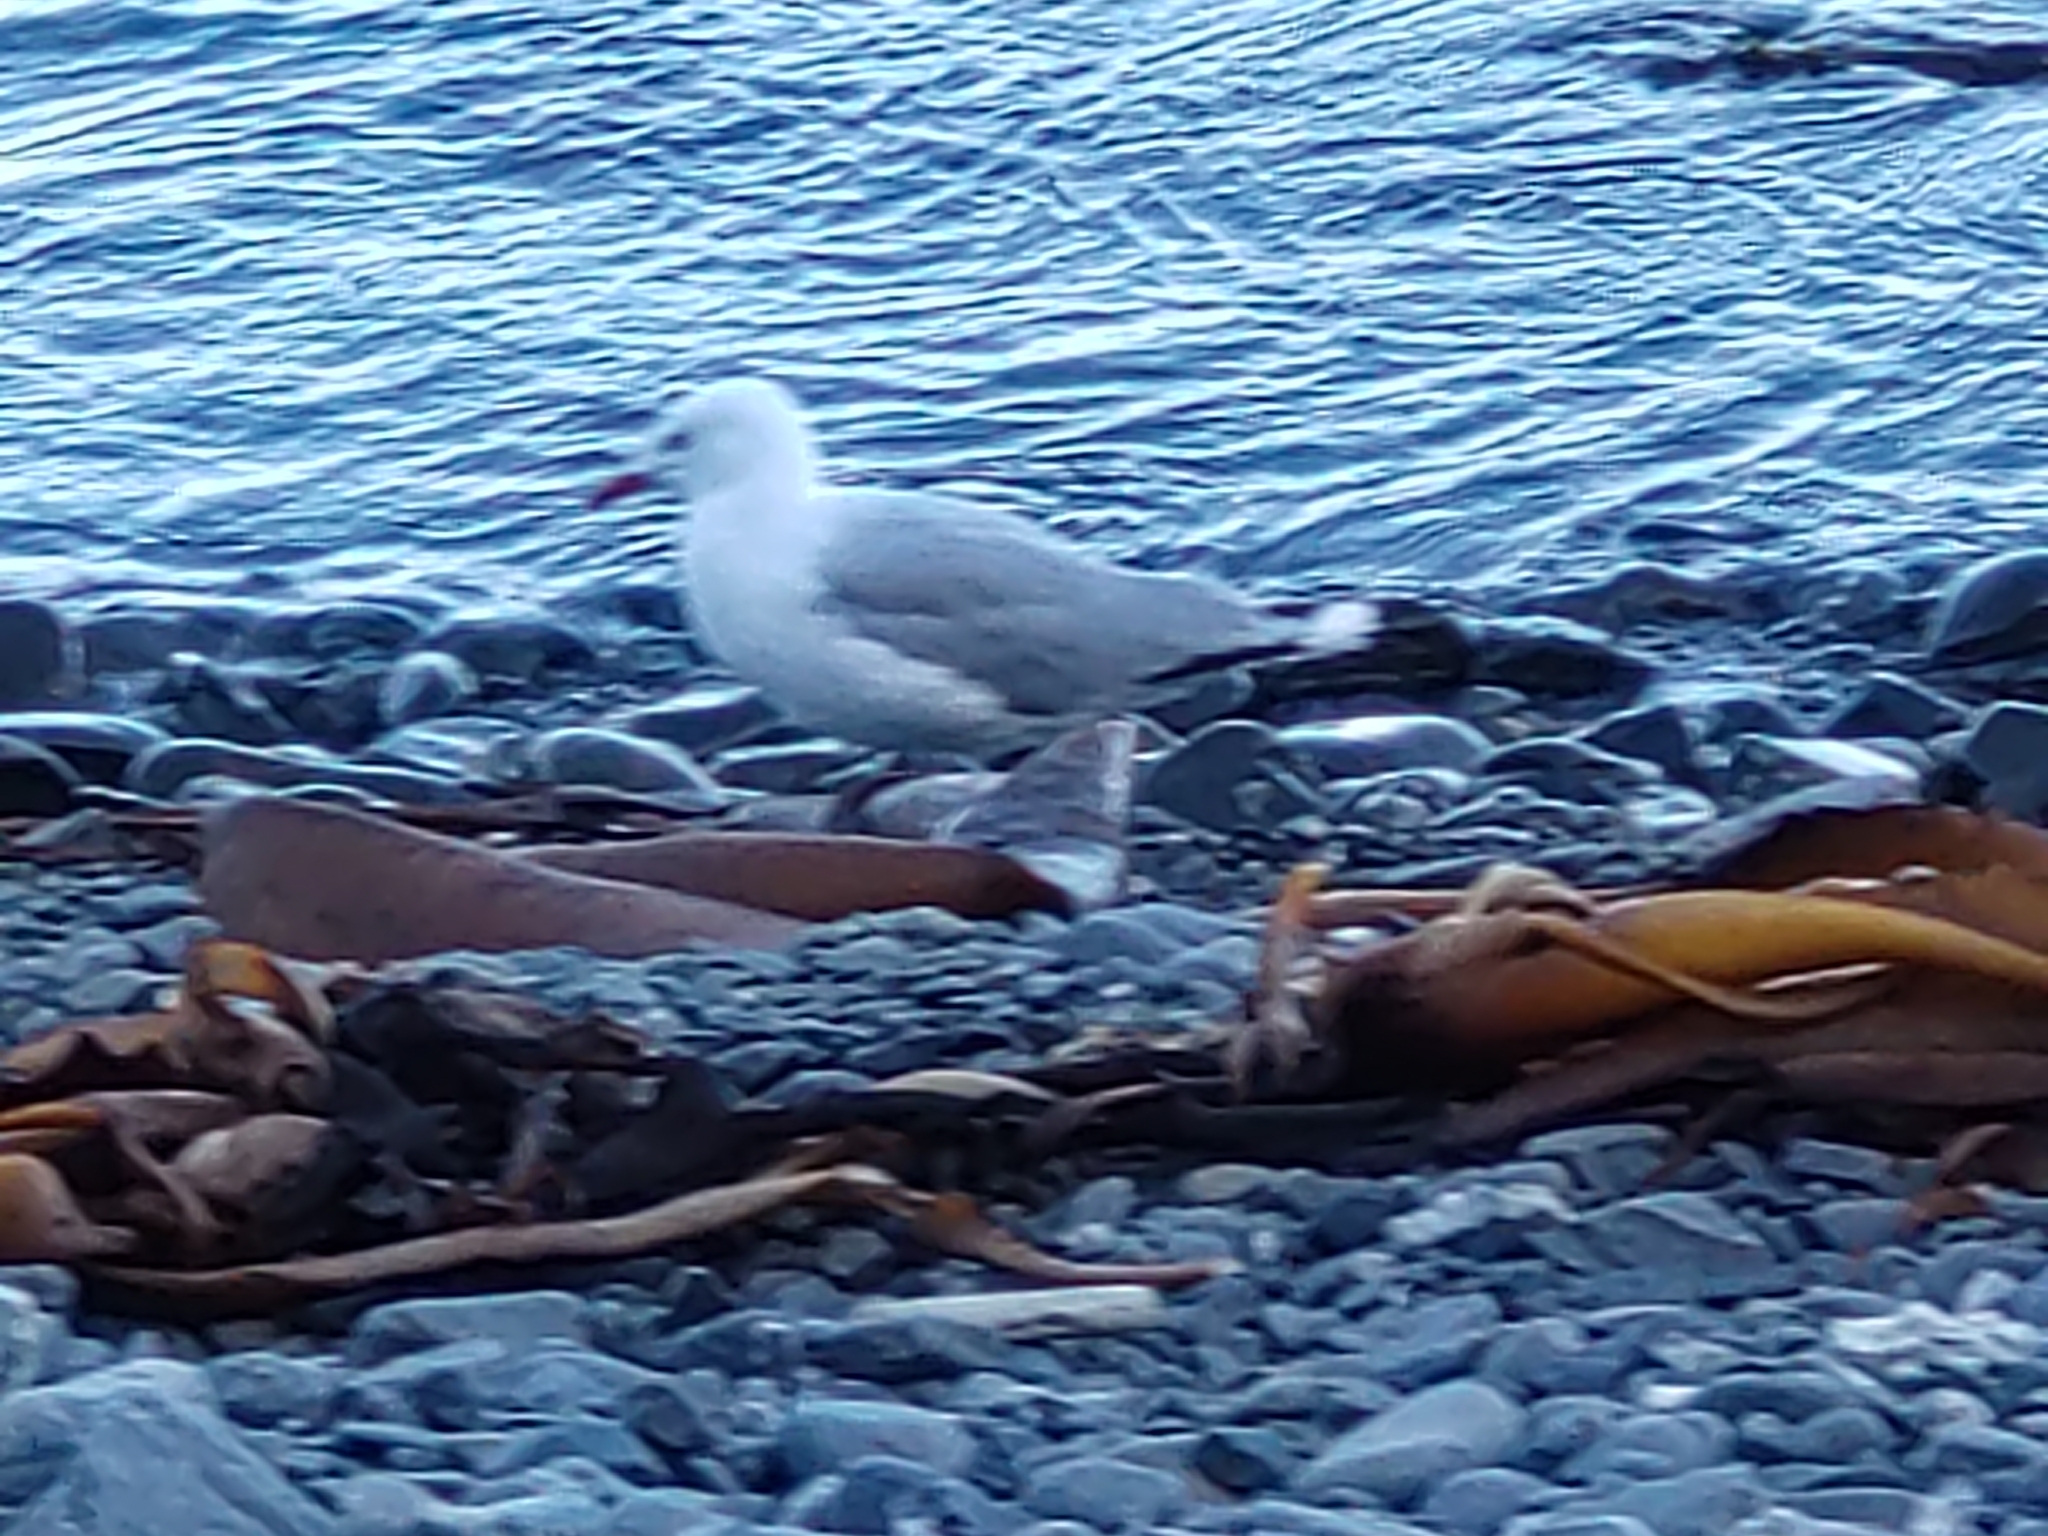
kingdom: Animalia
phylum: Chordata
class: Aves
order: Charadriiformes
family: Laridae
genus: Chroicocephalus
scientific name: Chroicocephalus novaehollandiae
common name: Silver gull
